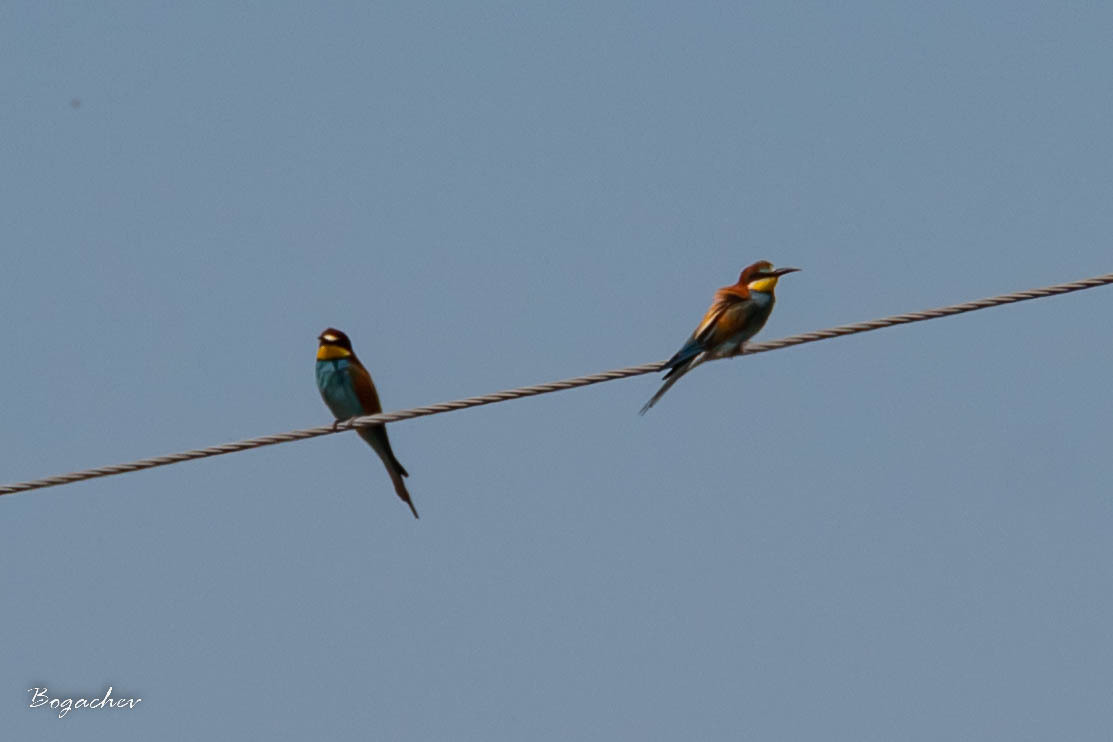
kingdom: Animalia
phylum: Chordata
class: Aves
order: Coraciiformes
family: Meropidae
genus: Merops
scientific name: Merops apiaster
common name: European bee-eater
